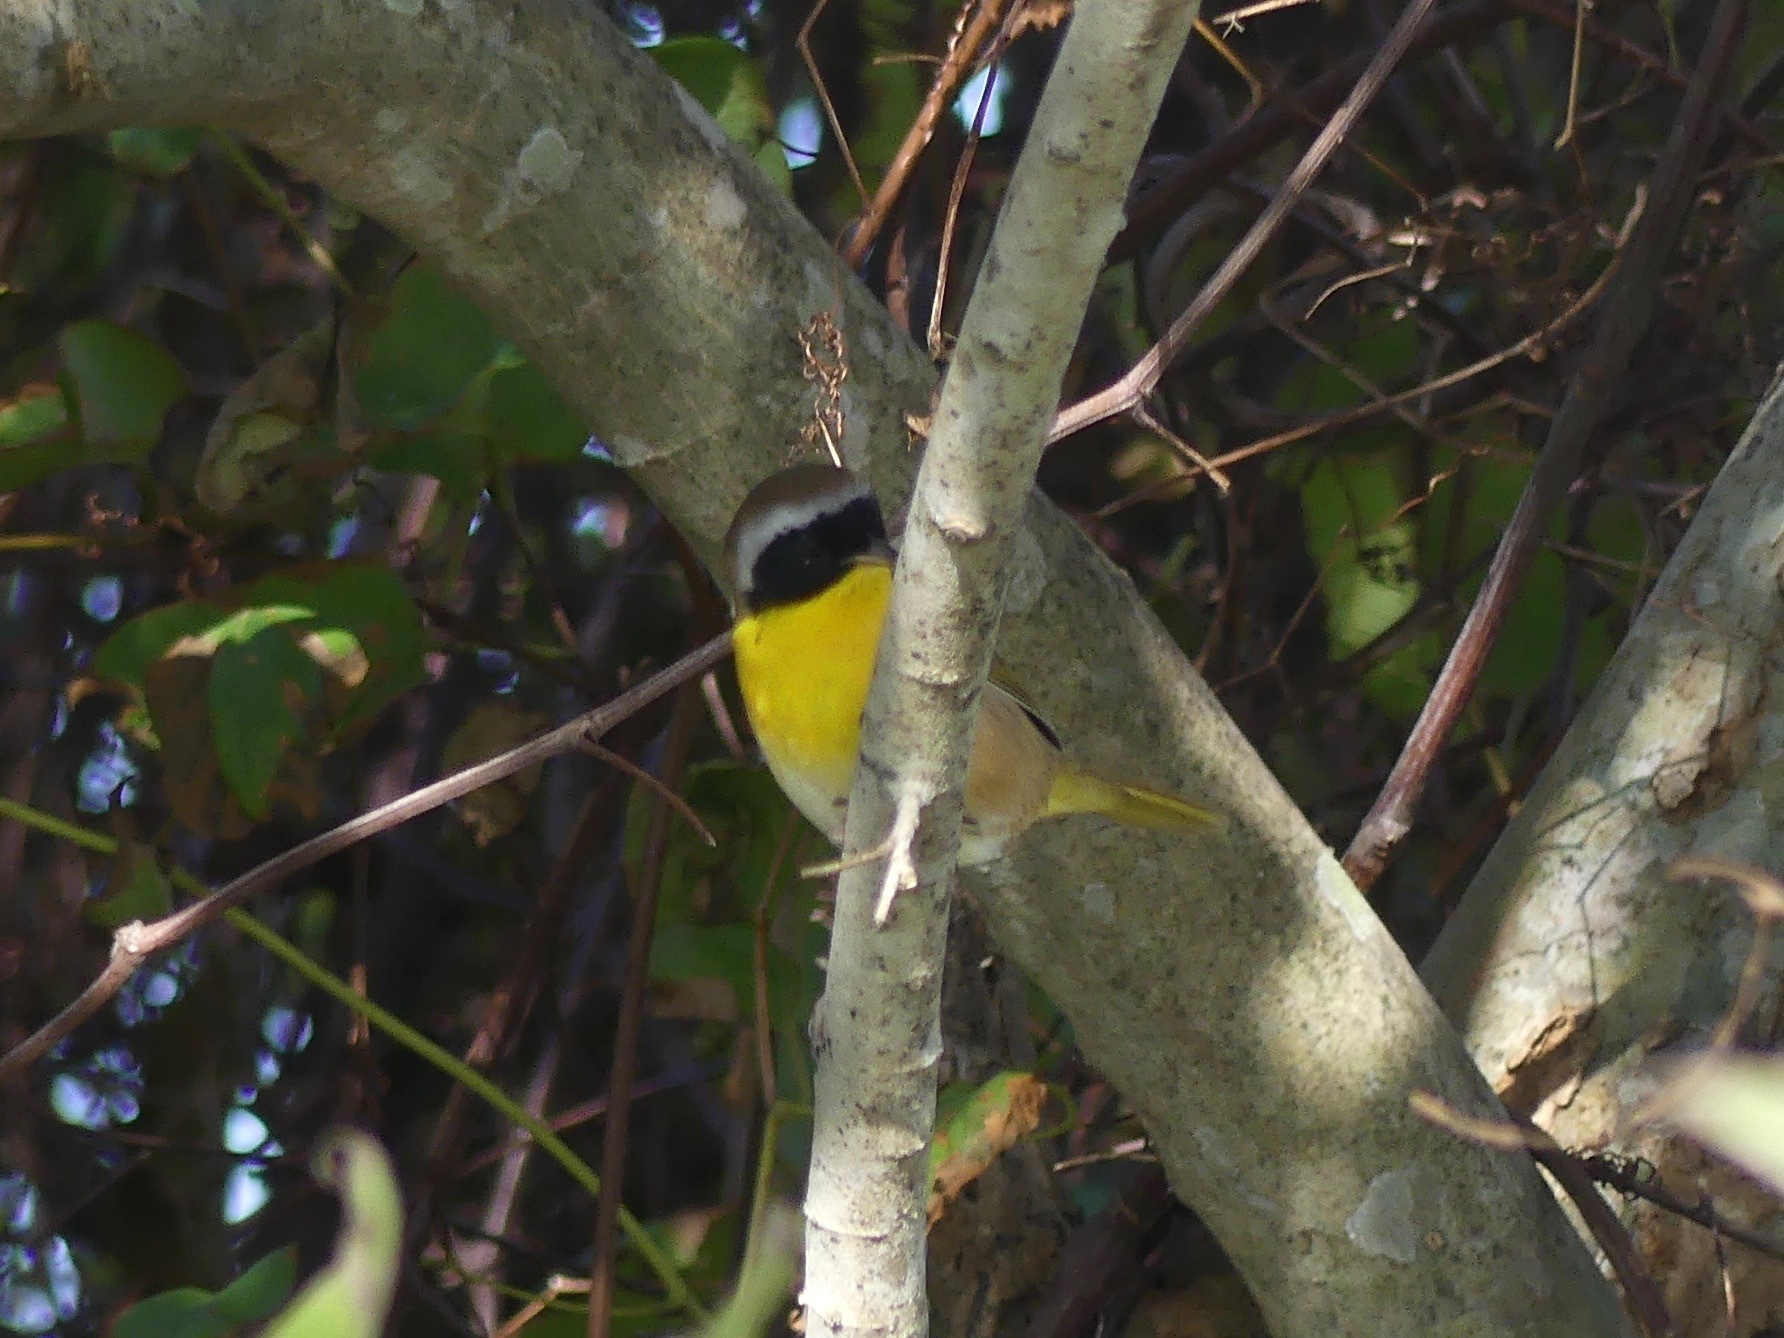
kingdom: Animalia
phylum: Chordata
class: Aves
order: Passeriformes
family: Parulidae
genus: Geothlypis
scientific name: Geothlypis trichas
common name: Common yellowthroat
